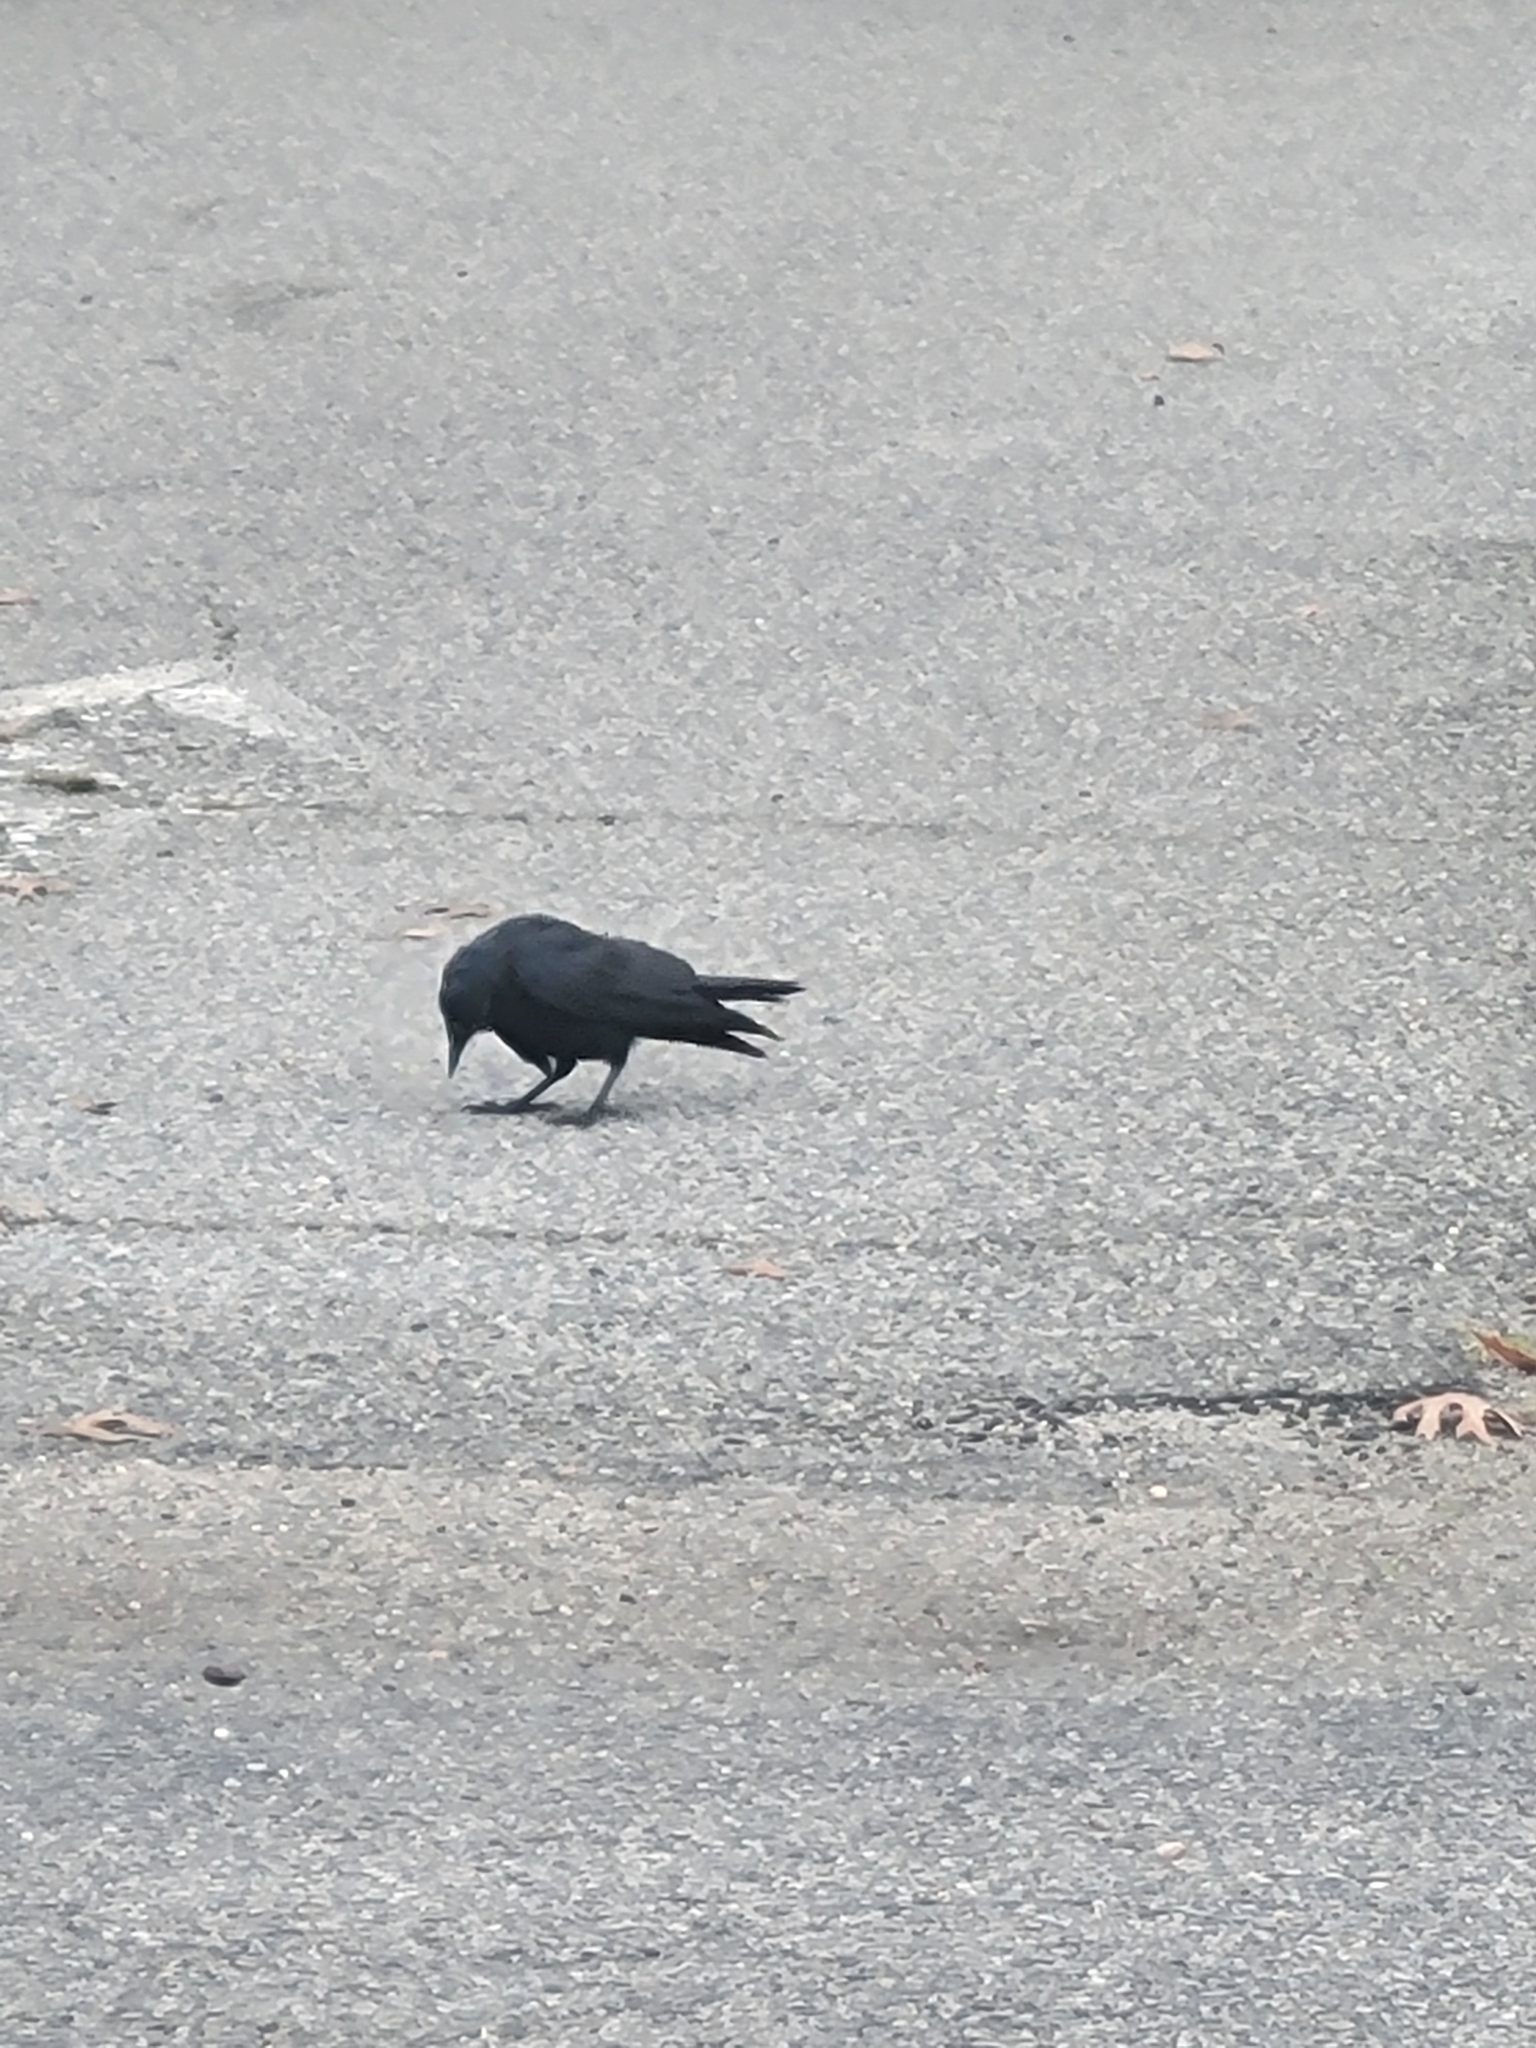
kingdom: Animalia
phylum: Chordata
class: Aves
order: Passeriformes
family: Corvidae
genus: Corvus
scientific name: Corvus ossifragus
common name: Fish crow
